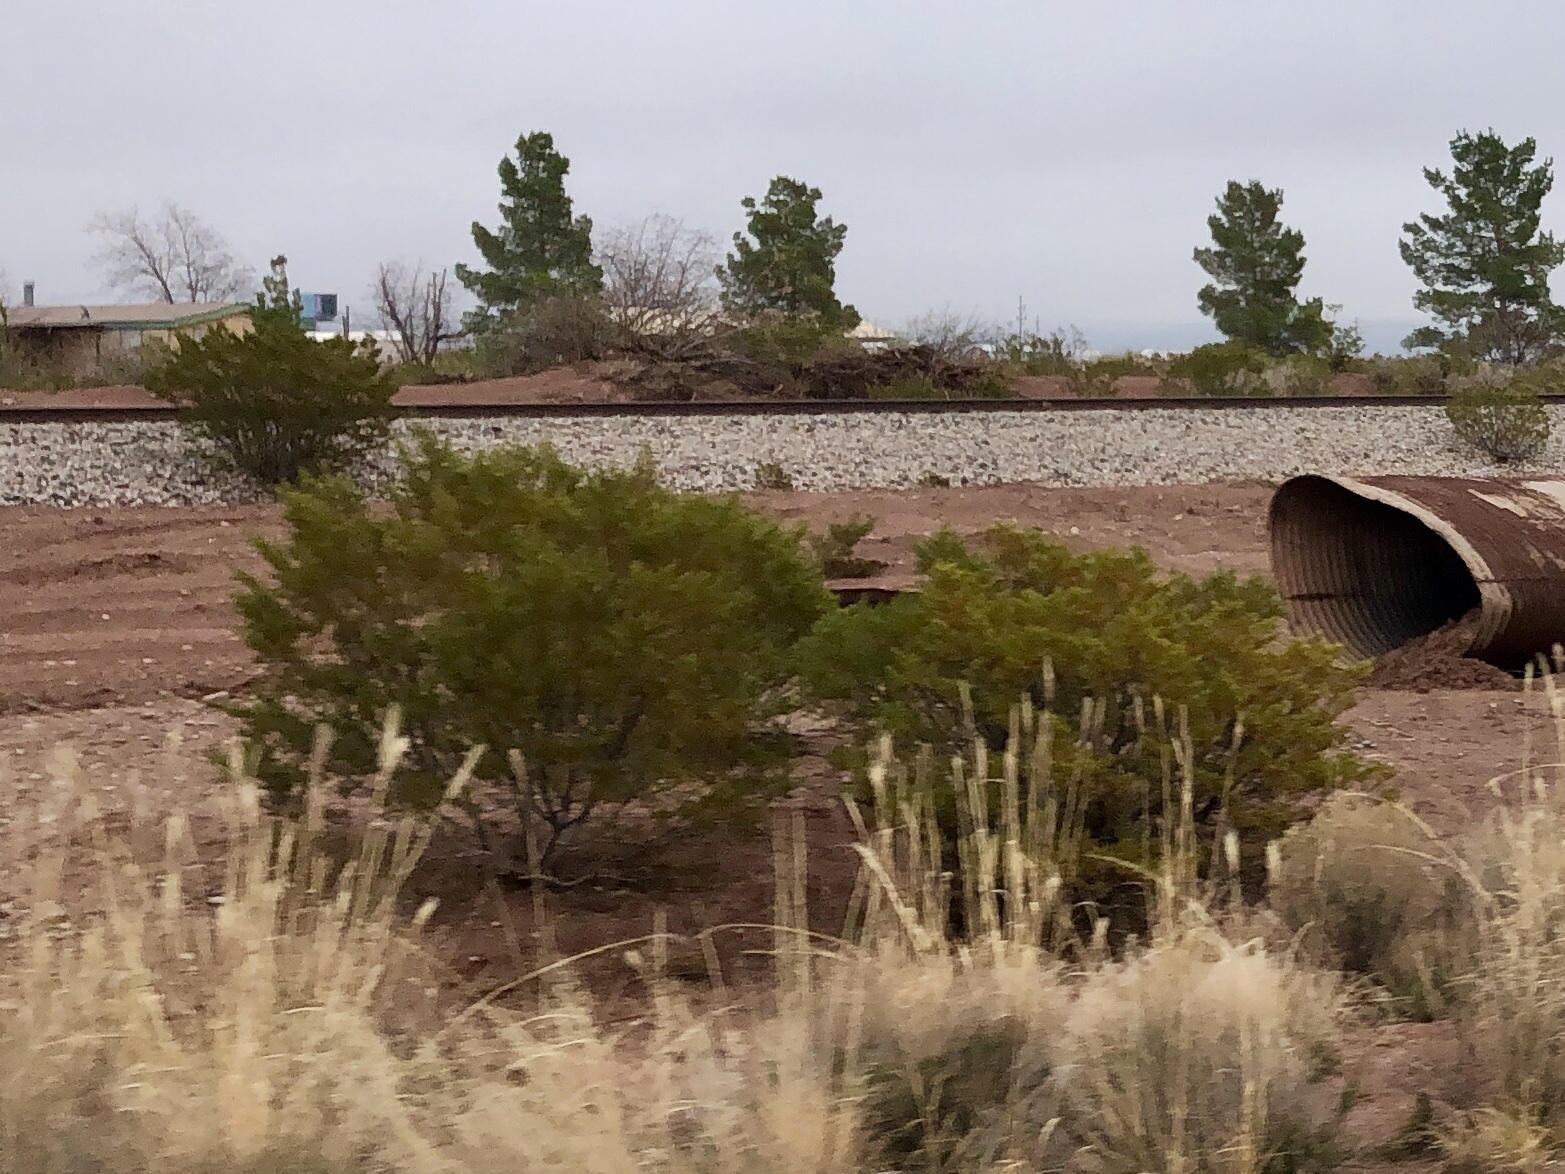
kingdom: Plantae
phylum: Tracheophyta
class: Magnoliopsida
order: Zygophyllales
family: Zygophyllaceae
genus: Larrea
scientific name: Larrea tridentata
